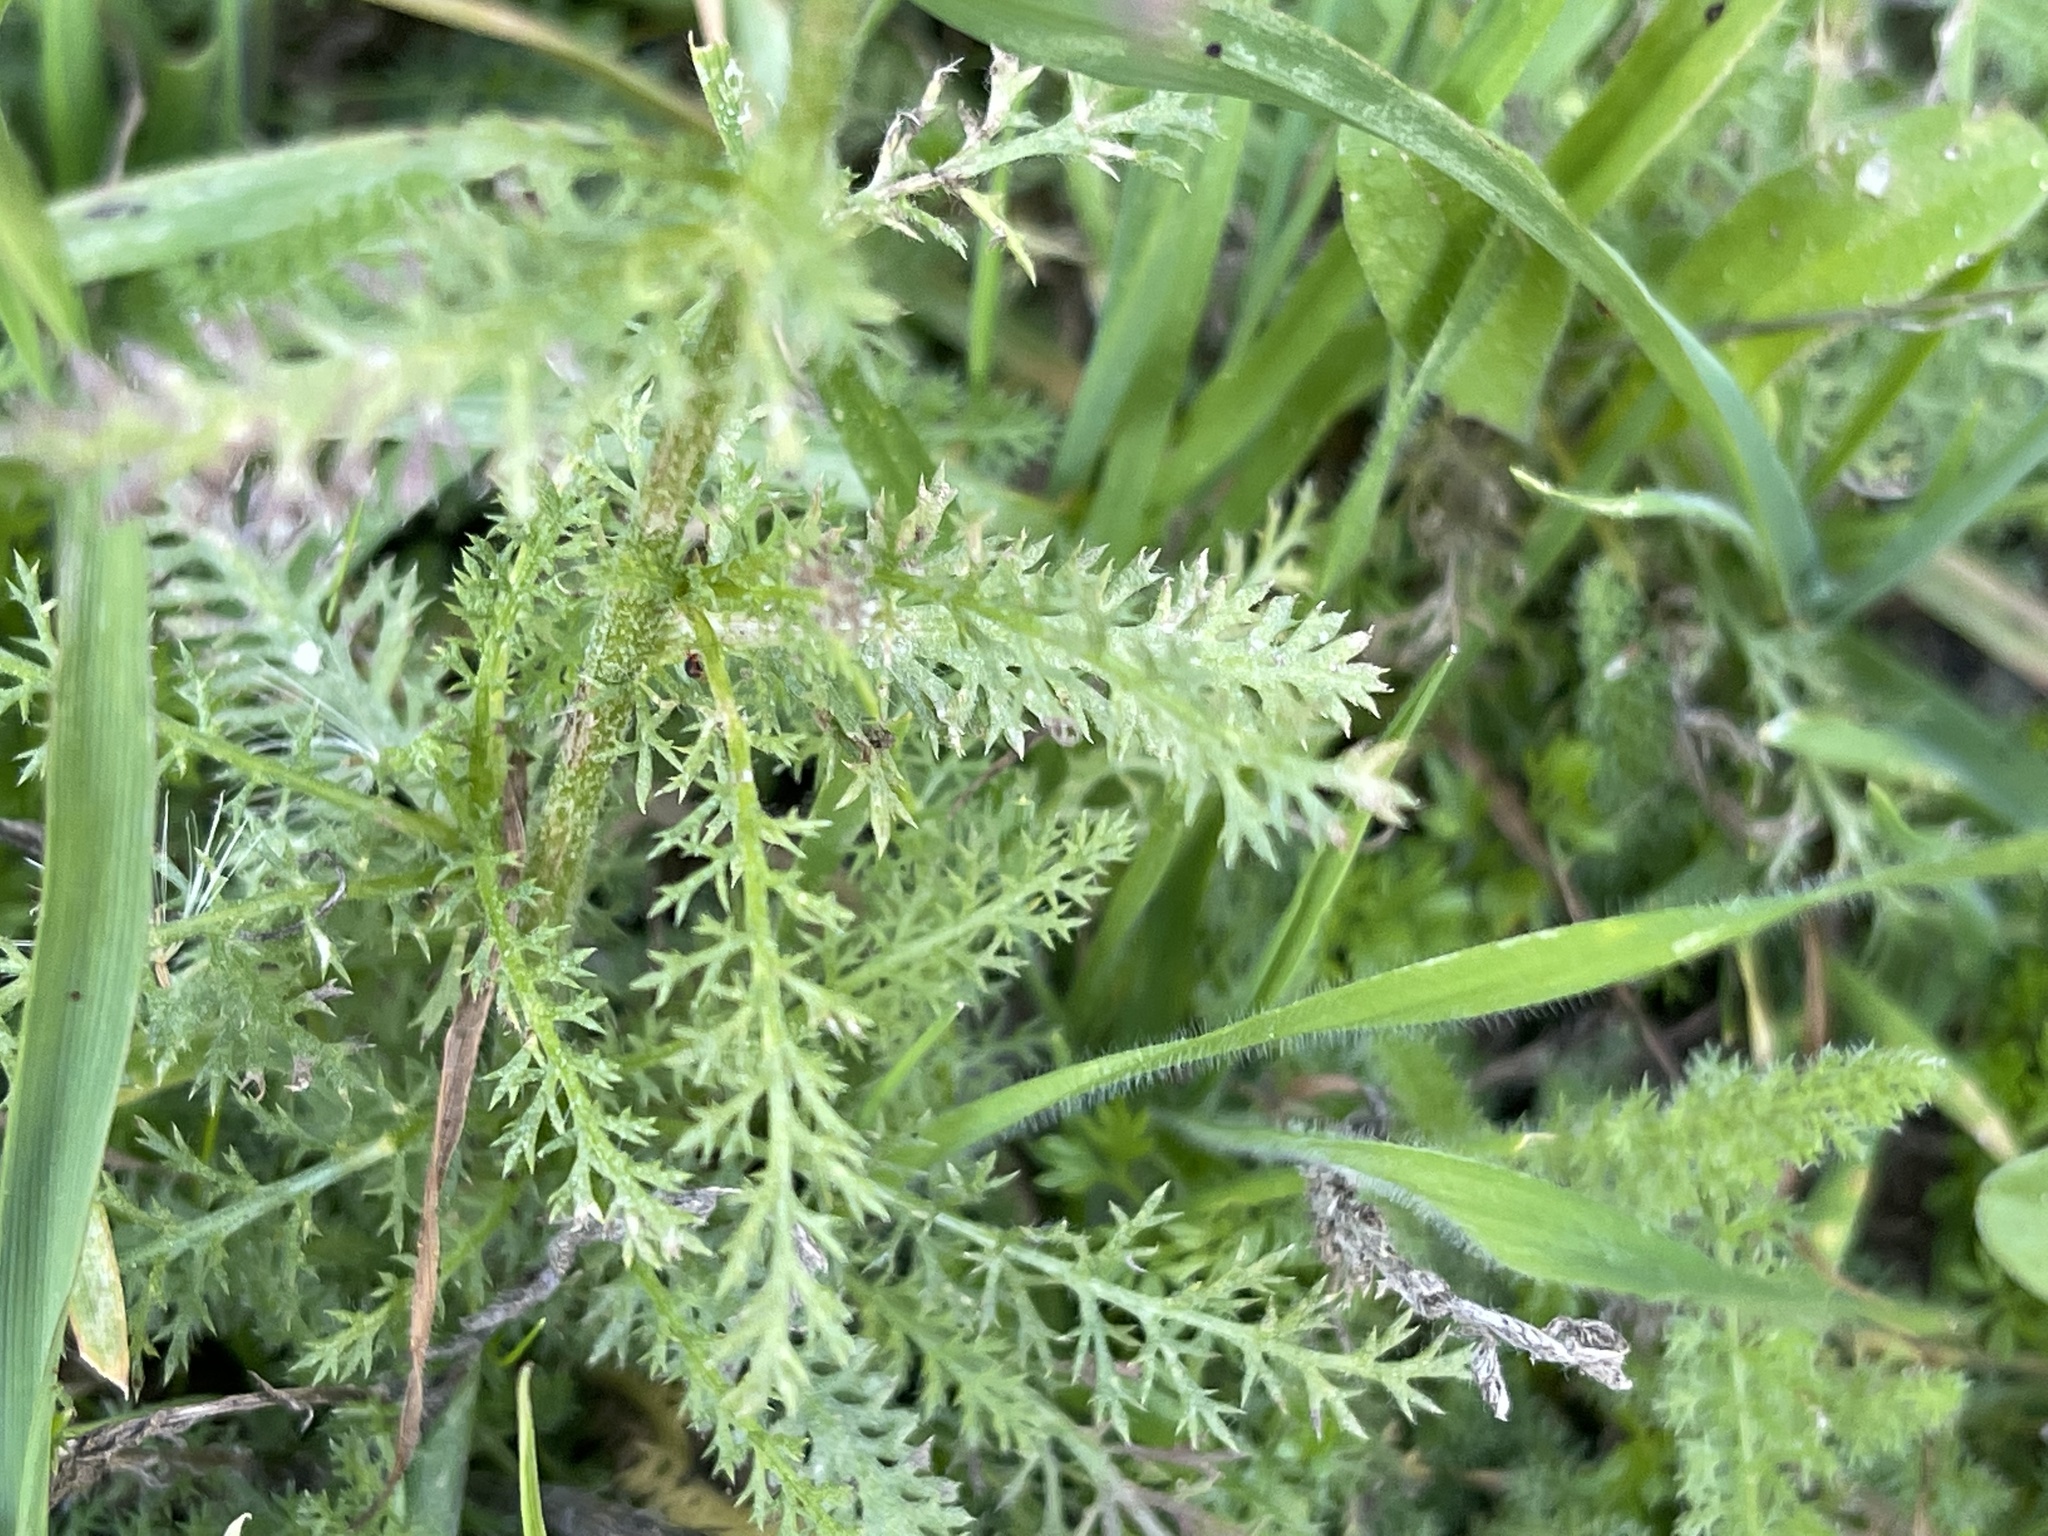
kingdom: Plantae
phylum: Tracheophyta
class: Magnoliopsida
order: Asterales
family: Asteraceae
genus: Achillea
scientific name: Achillea millefolium
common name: Yarrow
